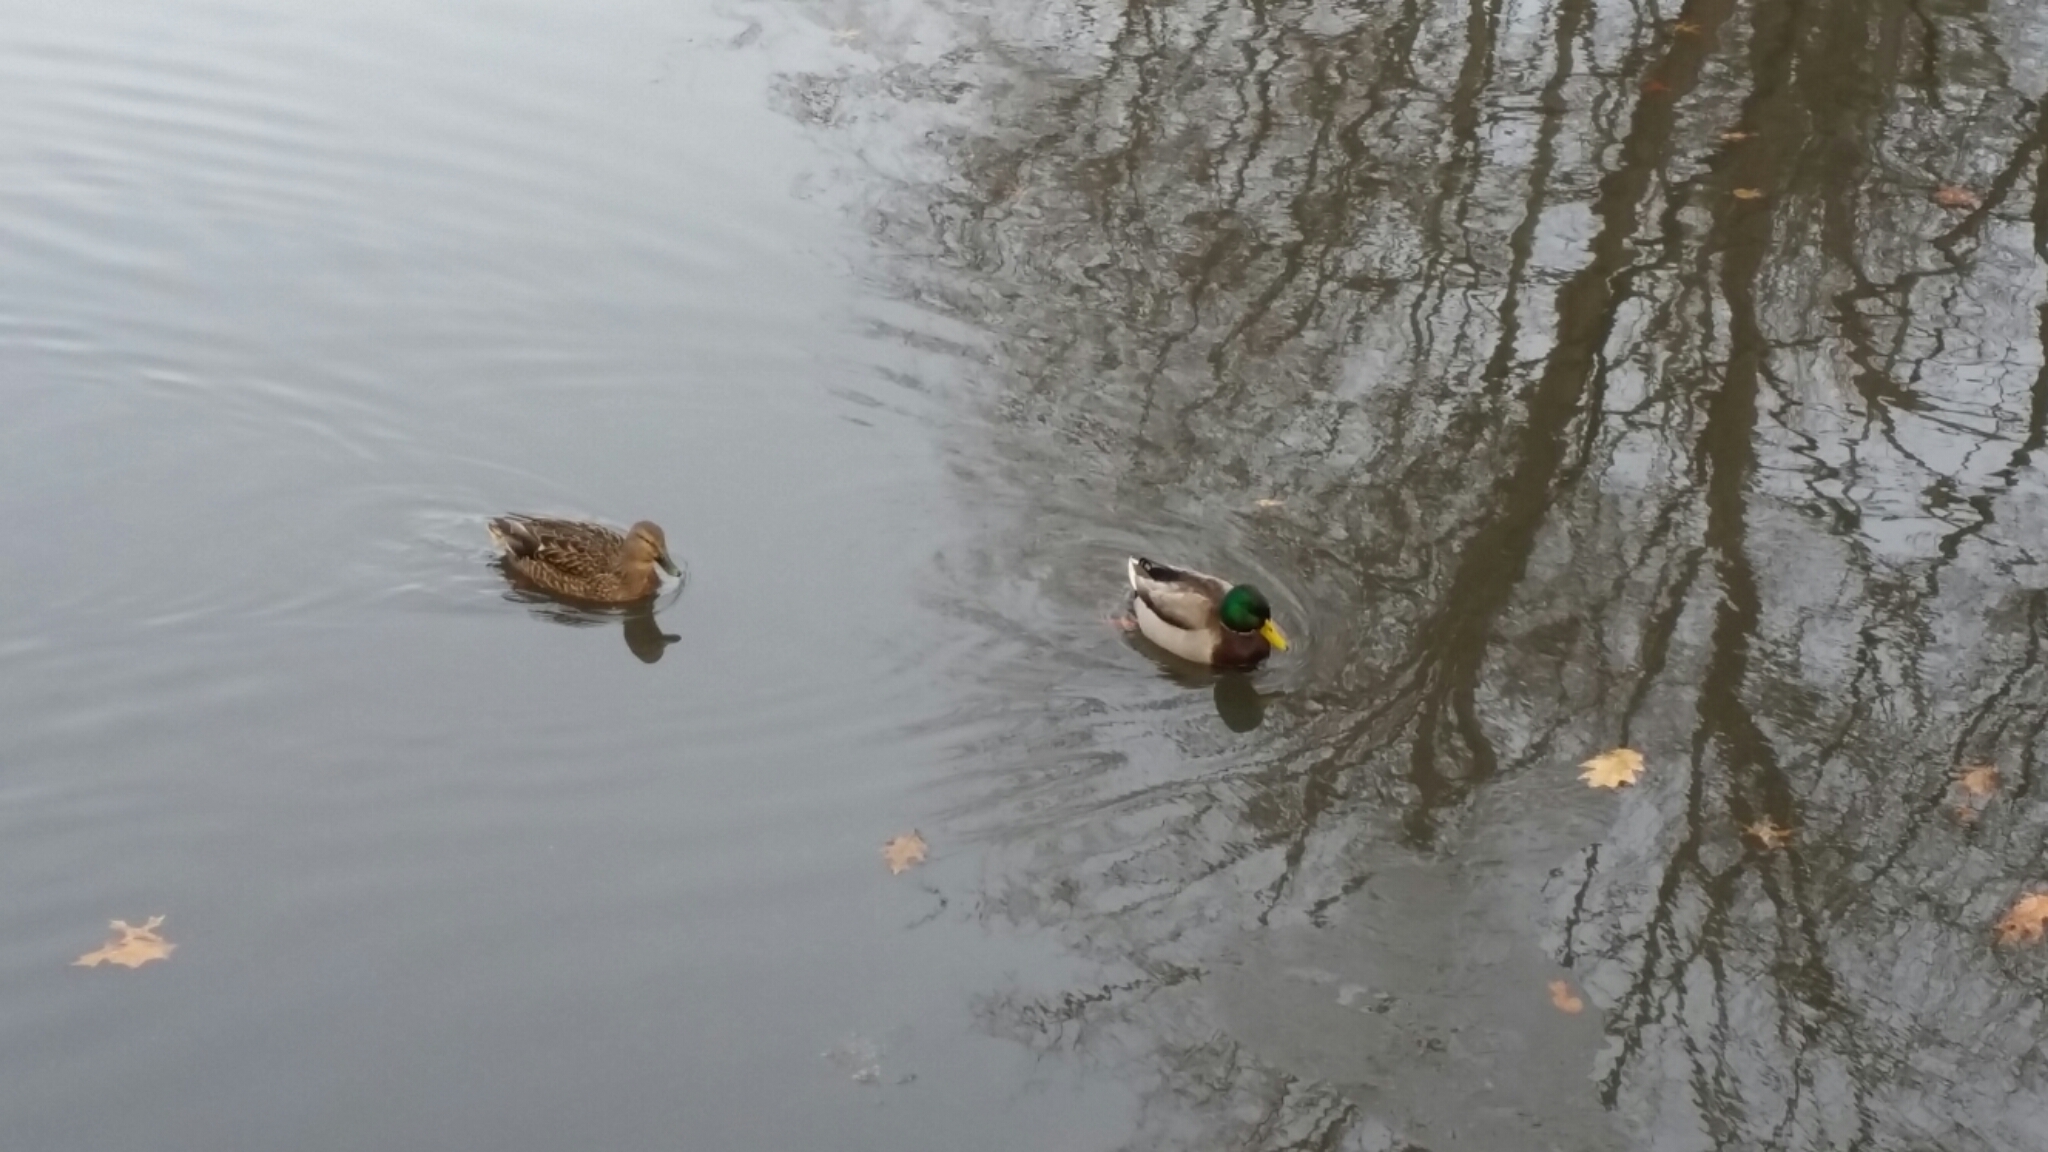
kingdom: Animalia
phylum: Chordata
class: Aves
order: Anseriformes
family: Anatidae
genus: Anas
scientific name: Anas platyrhynchos
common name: Mallard
